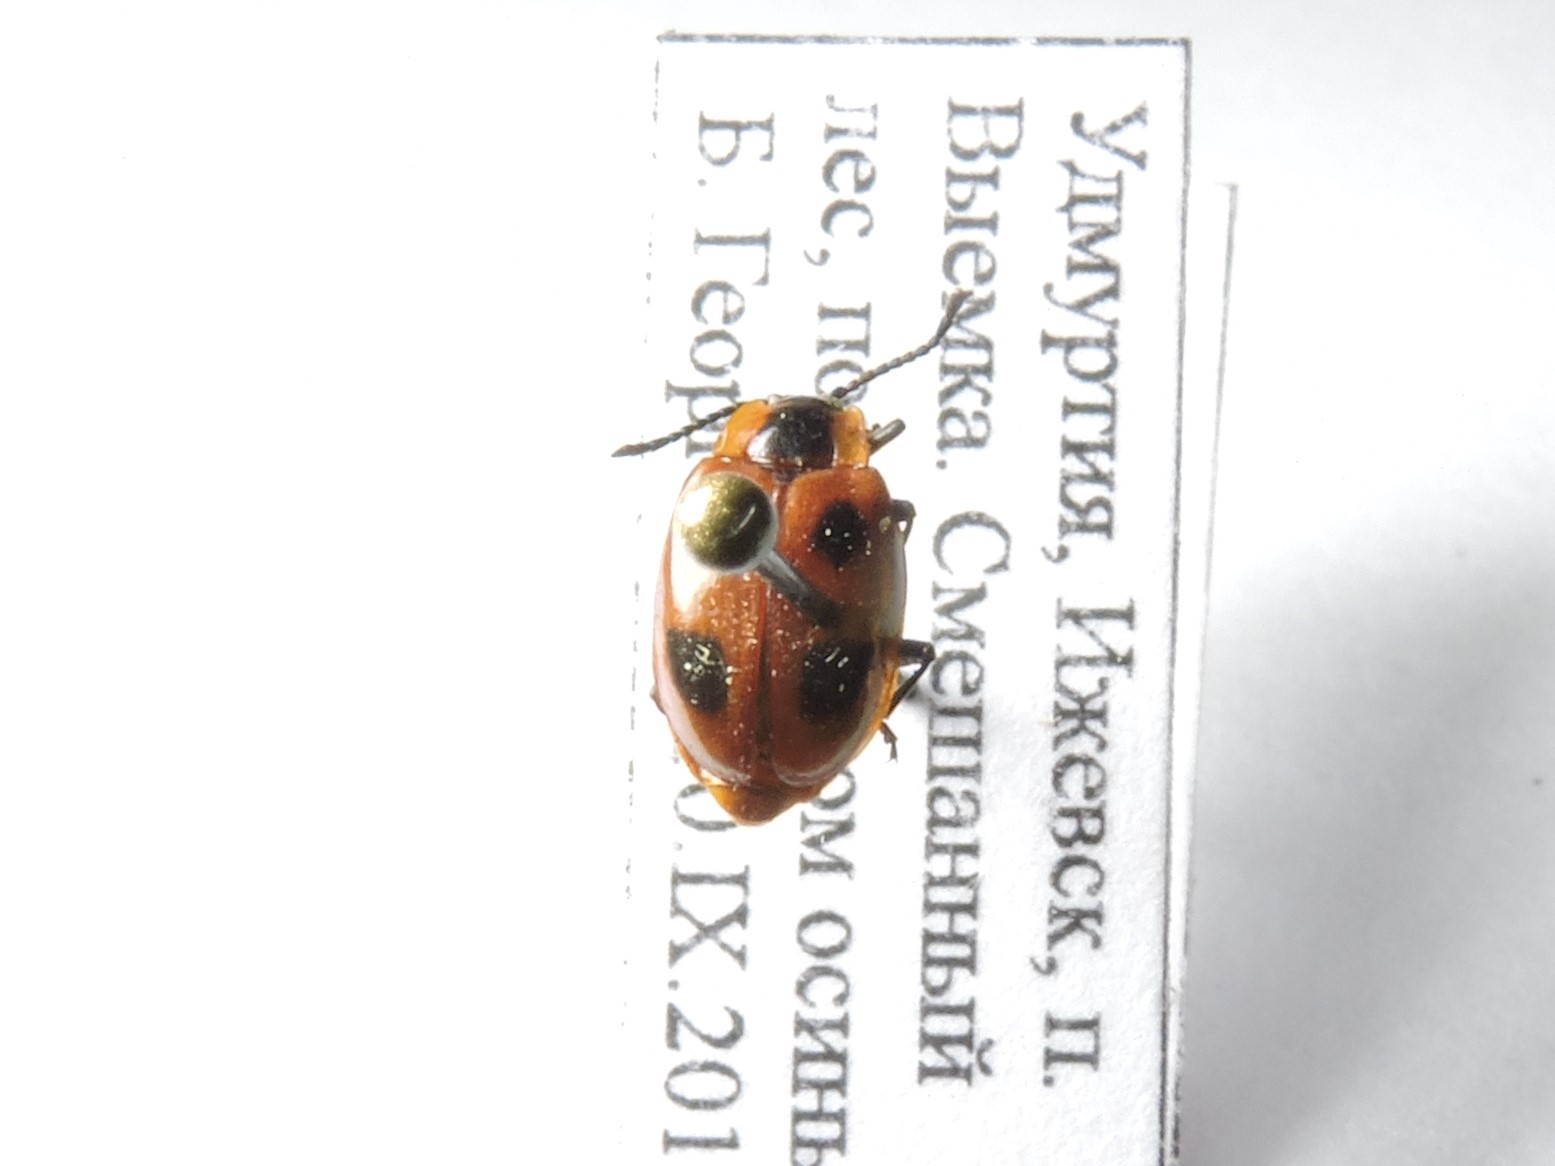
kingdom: Animalia
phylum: Arthropoda
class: Insecta
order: Coleoptera
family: Endomychidae
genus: Endomychus
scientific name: Endomychus coccineus
